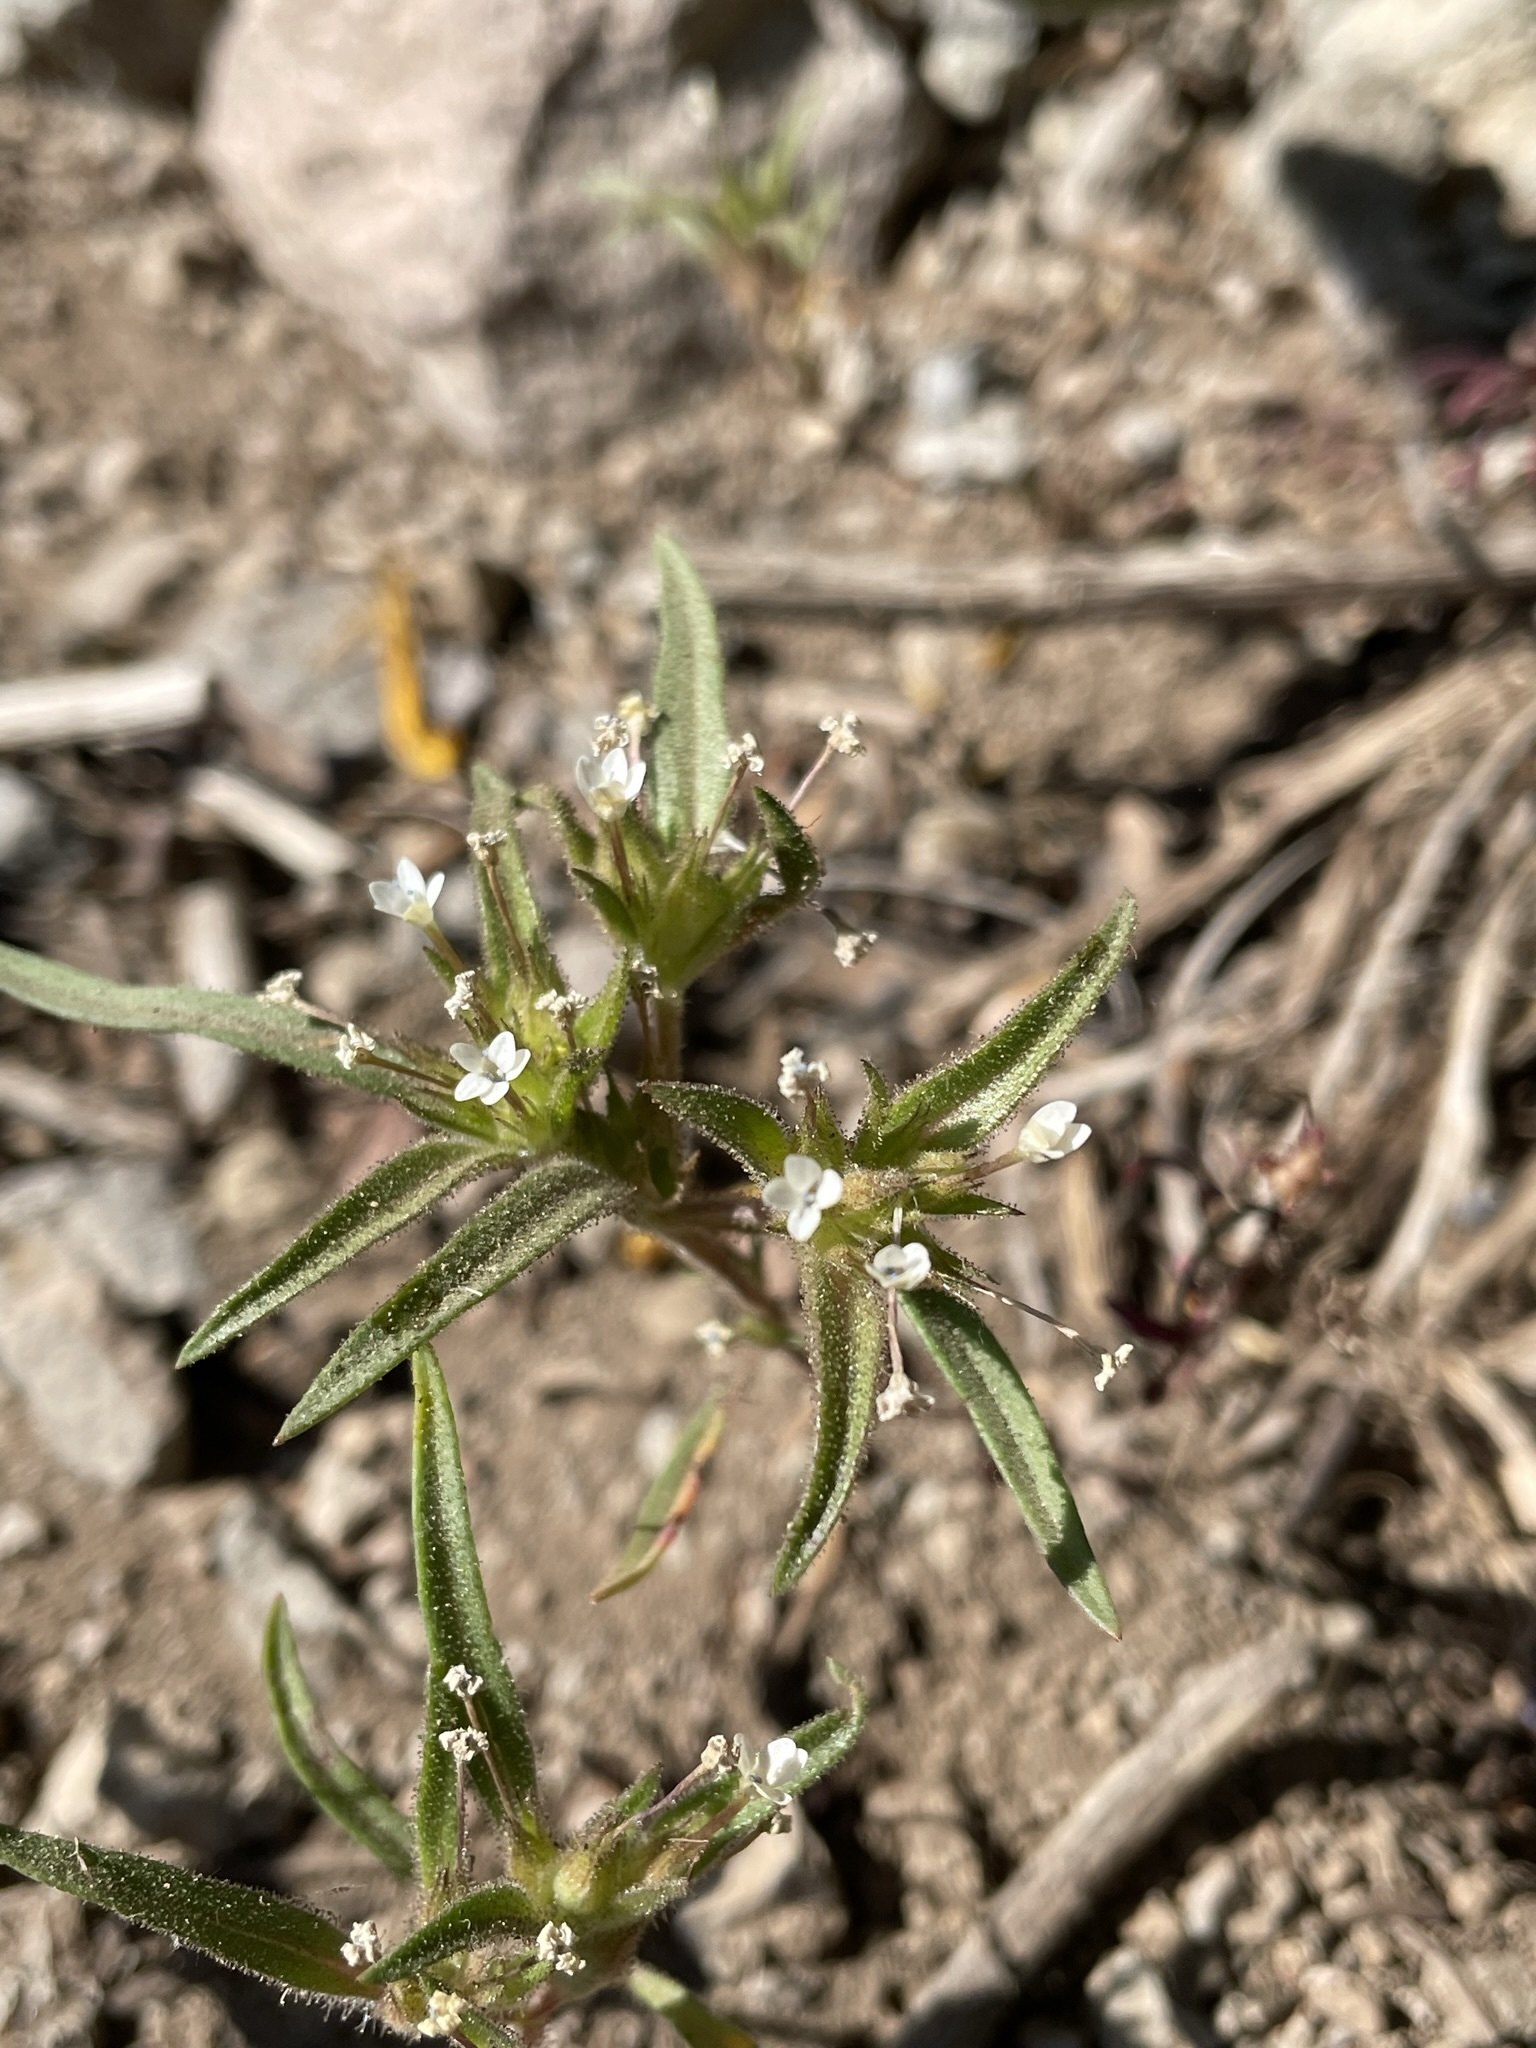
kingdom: Plantae
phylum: Tracheophyta
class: Magnoliopsida
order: Ericales
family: Polemoniaceae
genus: Collomia
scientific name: Collomia tinctoria
